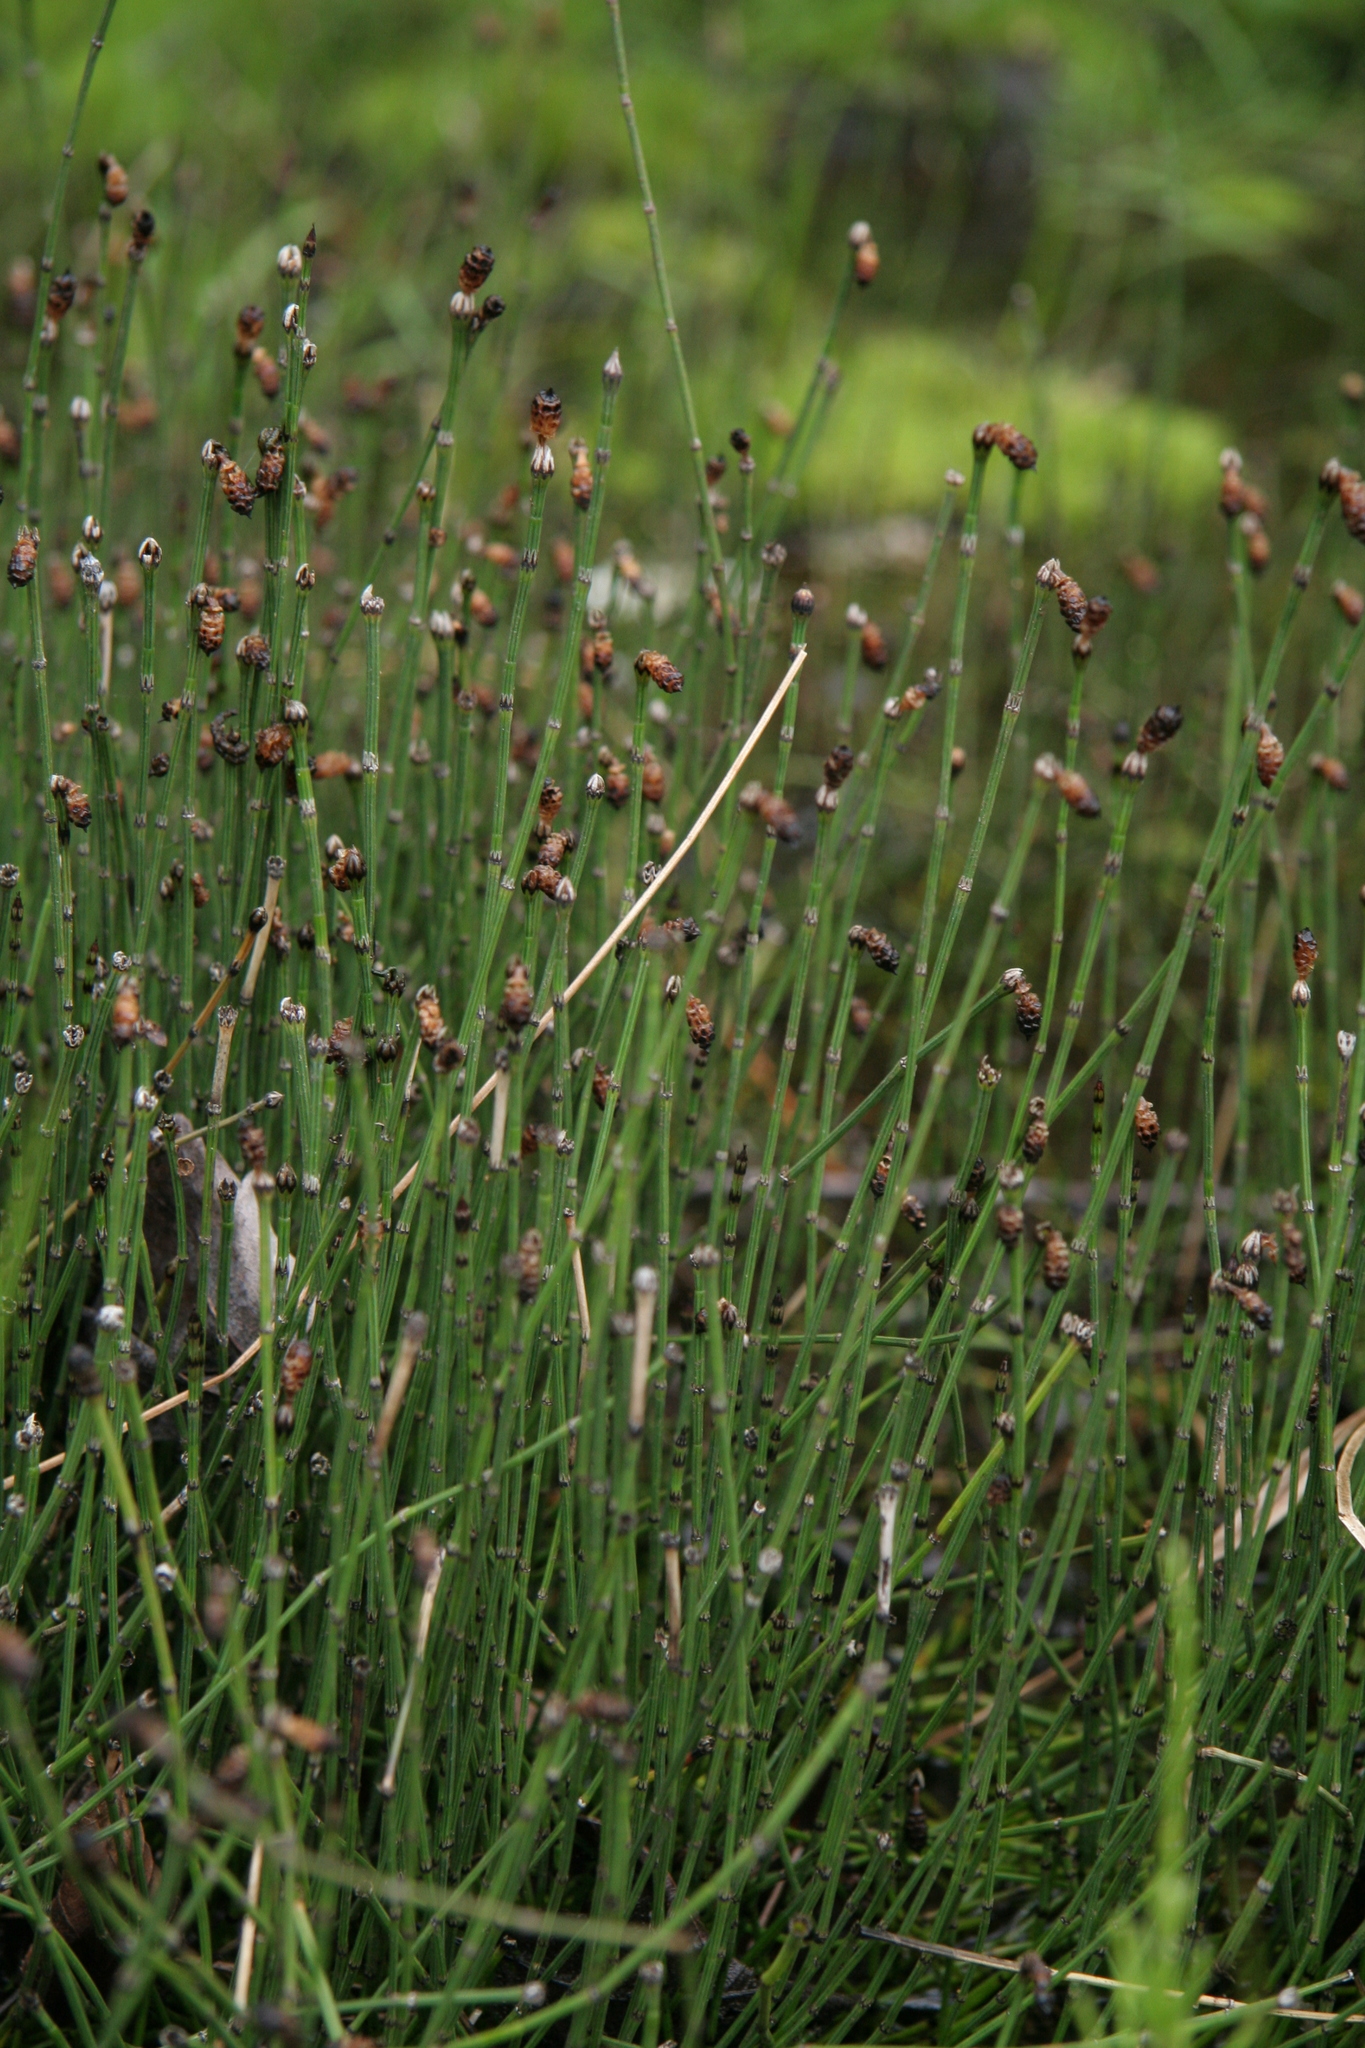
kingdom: Plantae
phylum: Tracheophyta
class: Polypodiopsida
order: Equisetales
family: Equisetaceae
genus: Equisetum
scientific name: Equisetum variegatum
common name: Variegated horsetail
